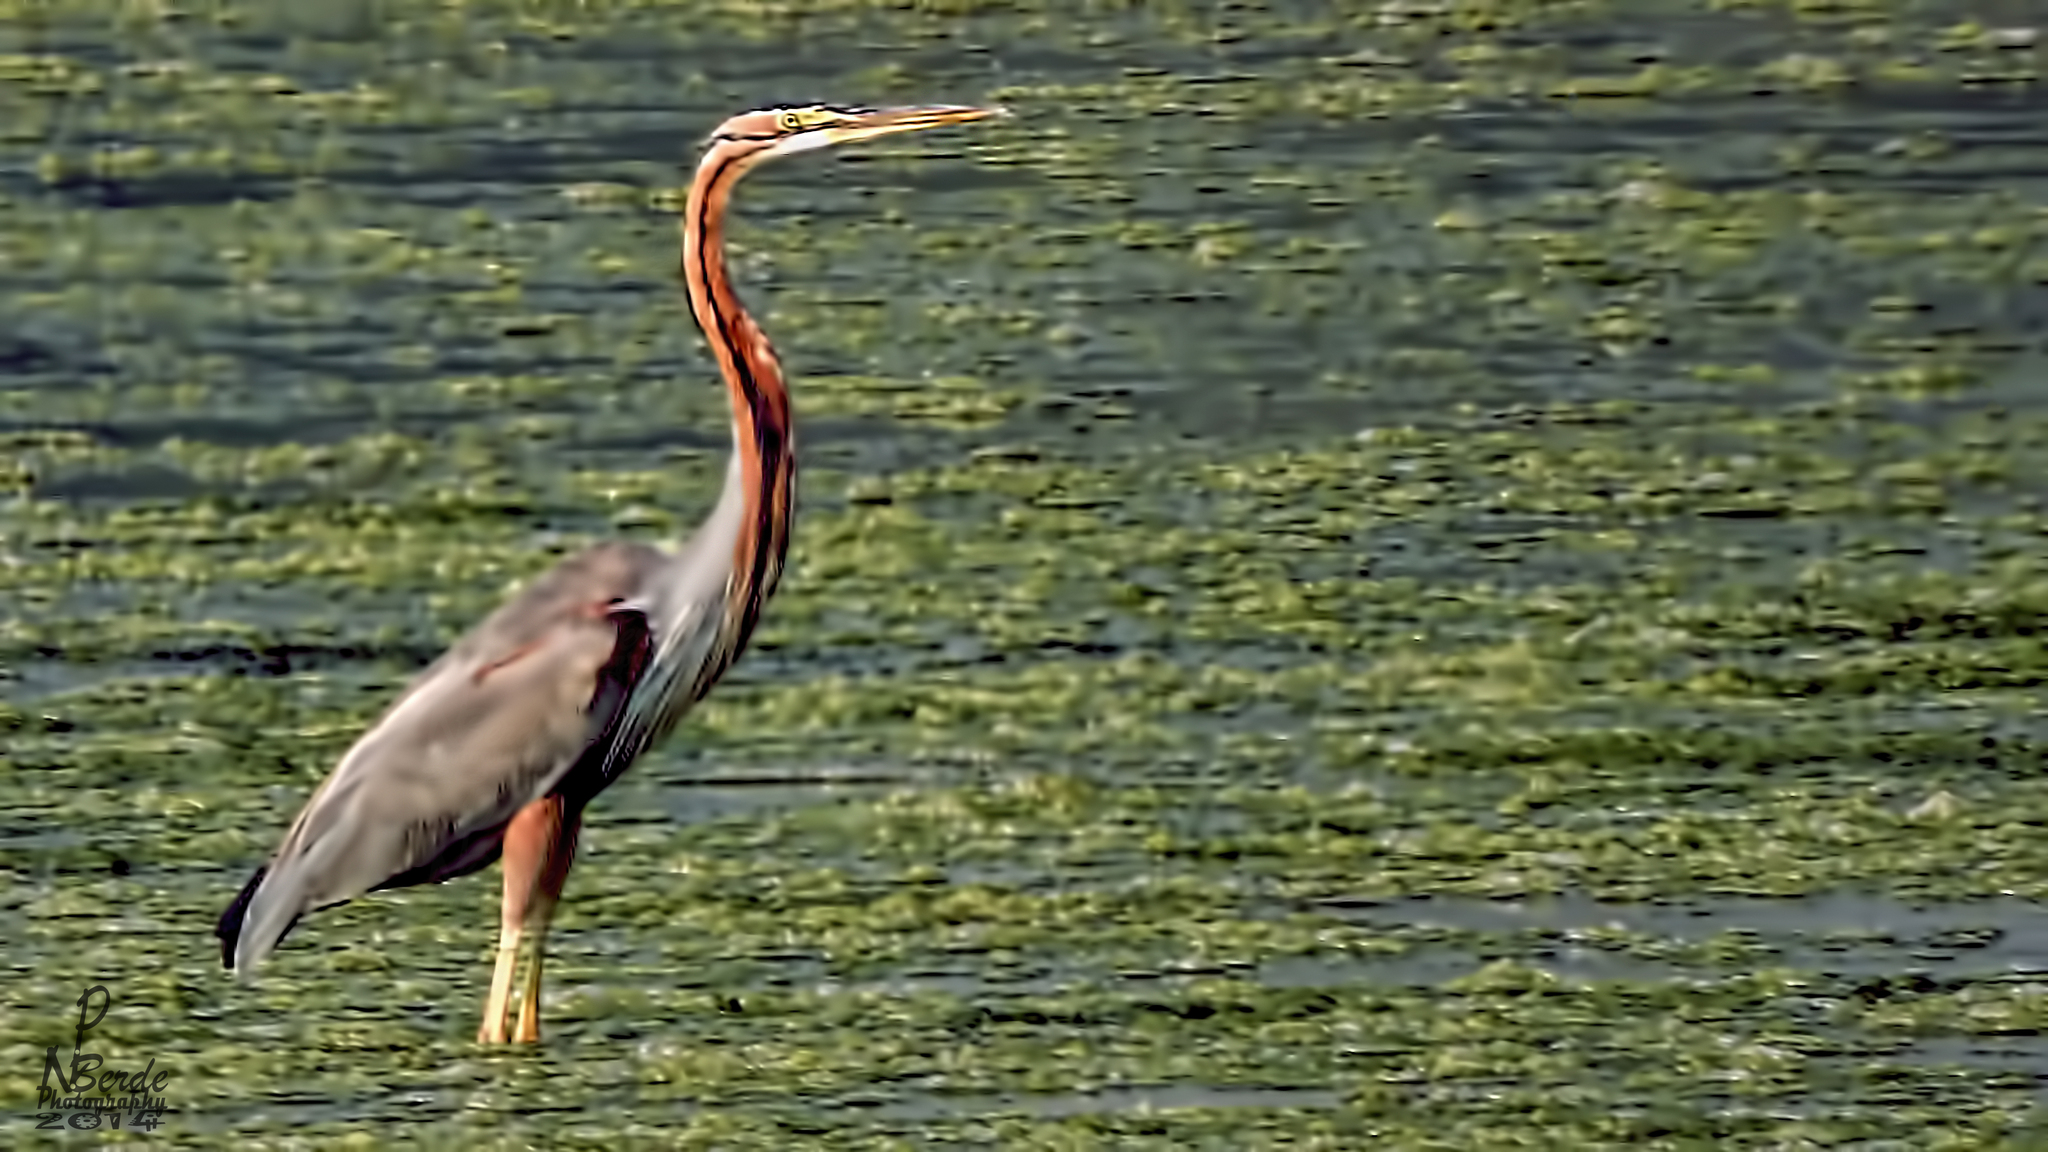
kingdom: Animalia
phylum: Chordata
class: Aves
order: Pelecaniformes
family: Ardeidae
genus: Ardea
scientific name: Ardea purpurea
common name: Purple heron
